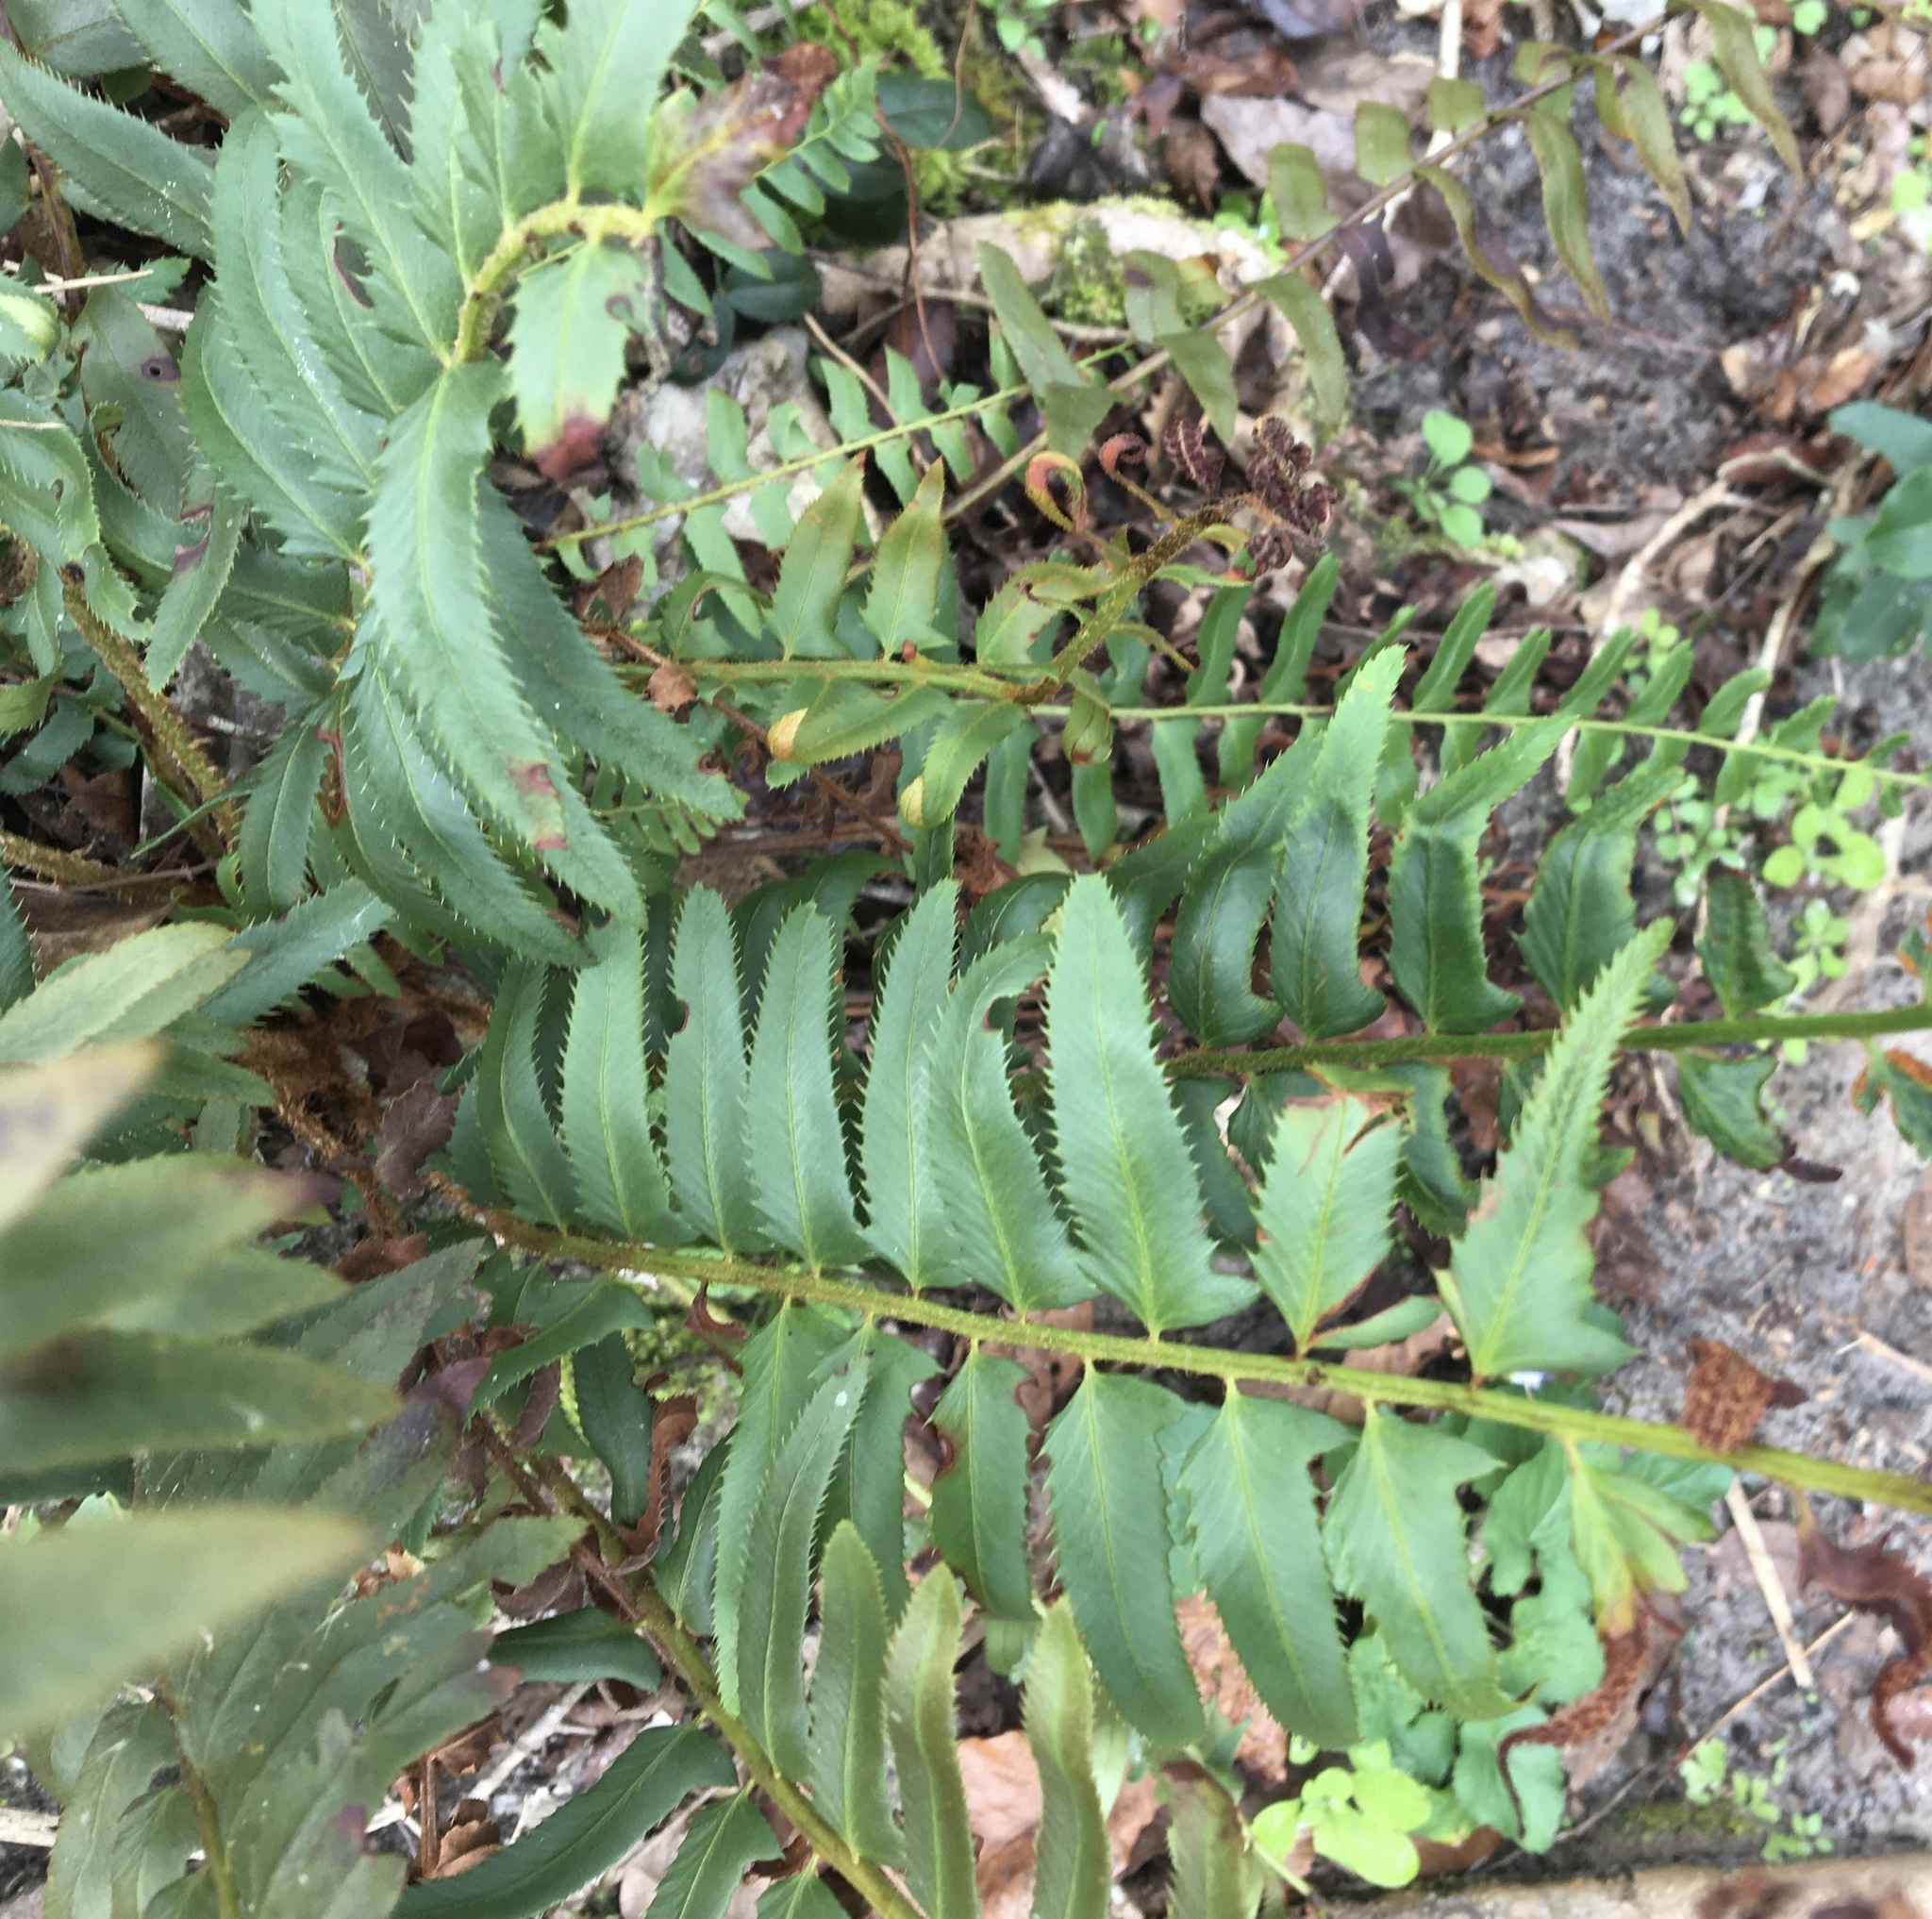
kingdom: Plantae
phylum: Tracheophyta
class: Polypodiopsida
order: Polypodiales
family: Dryopteridaceae
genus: Polystichum
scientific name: Polystichum acrostichoides
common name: Christmas fern
